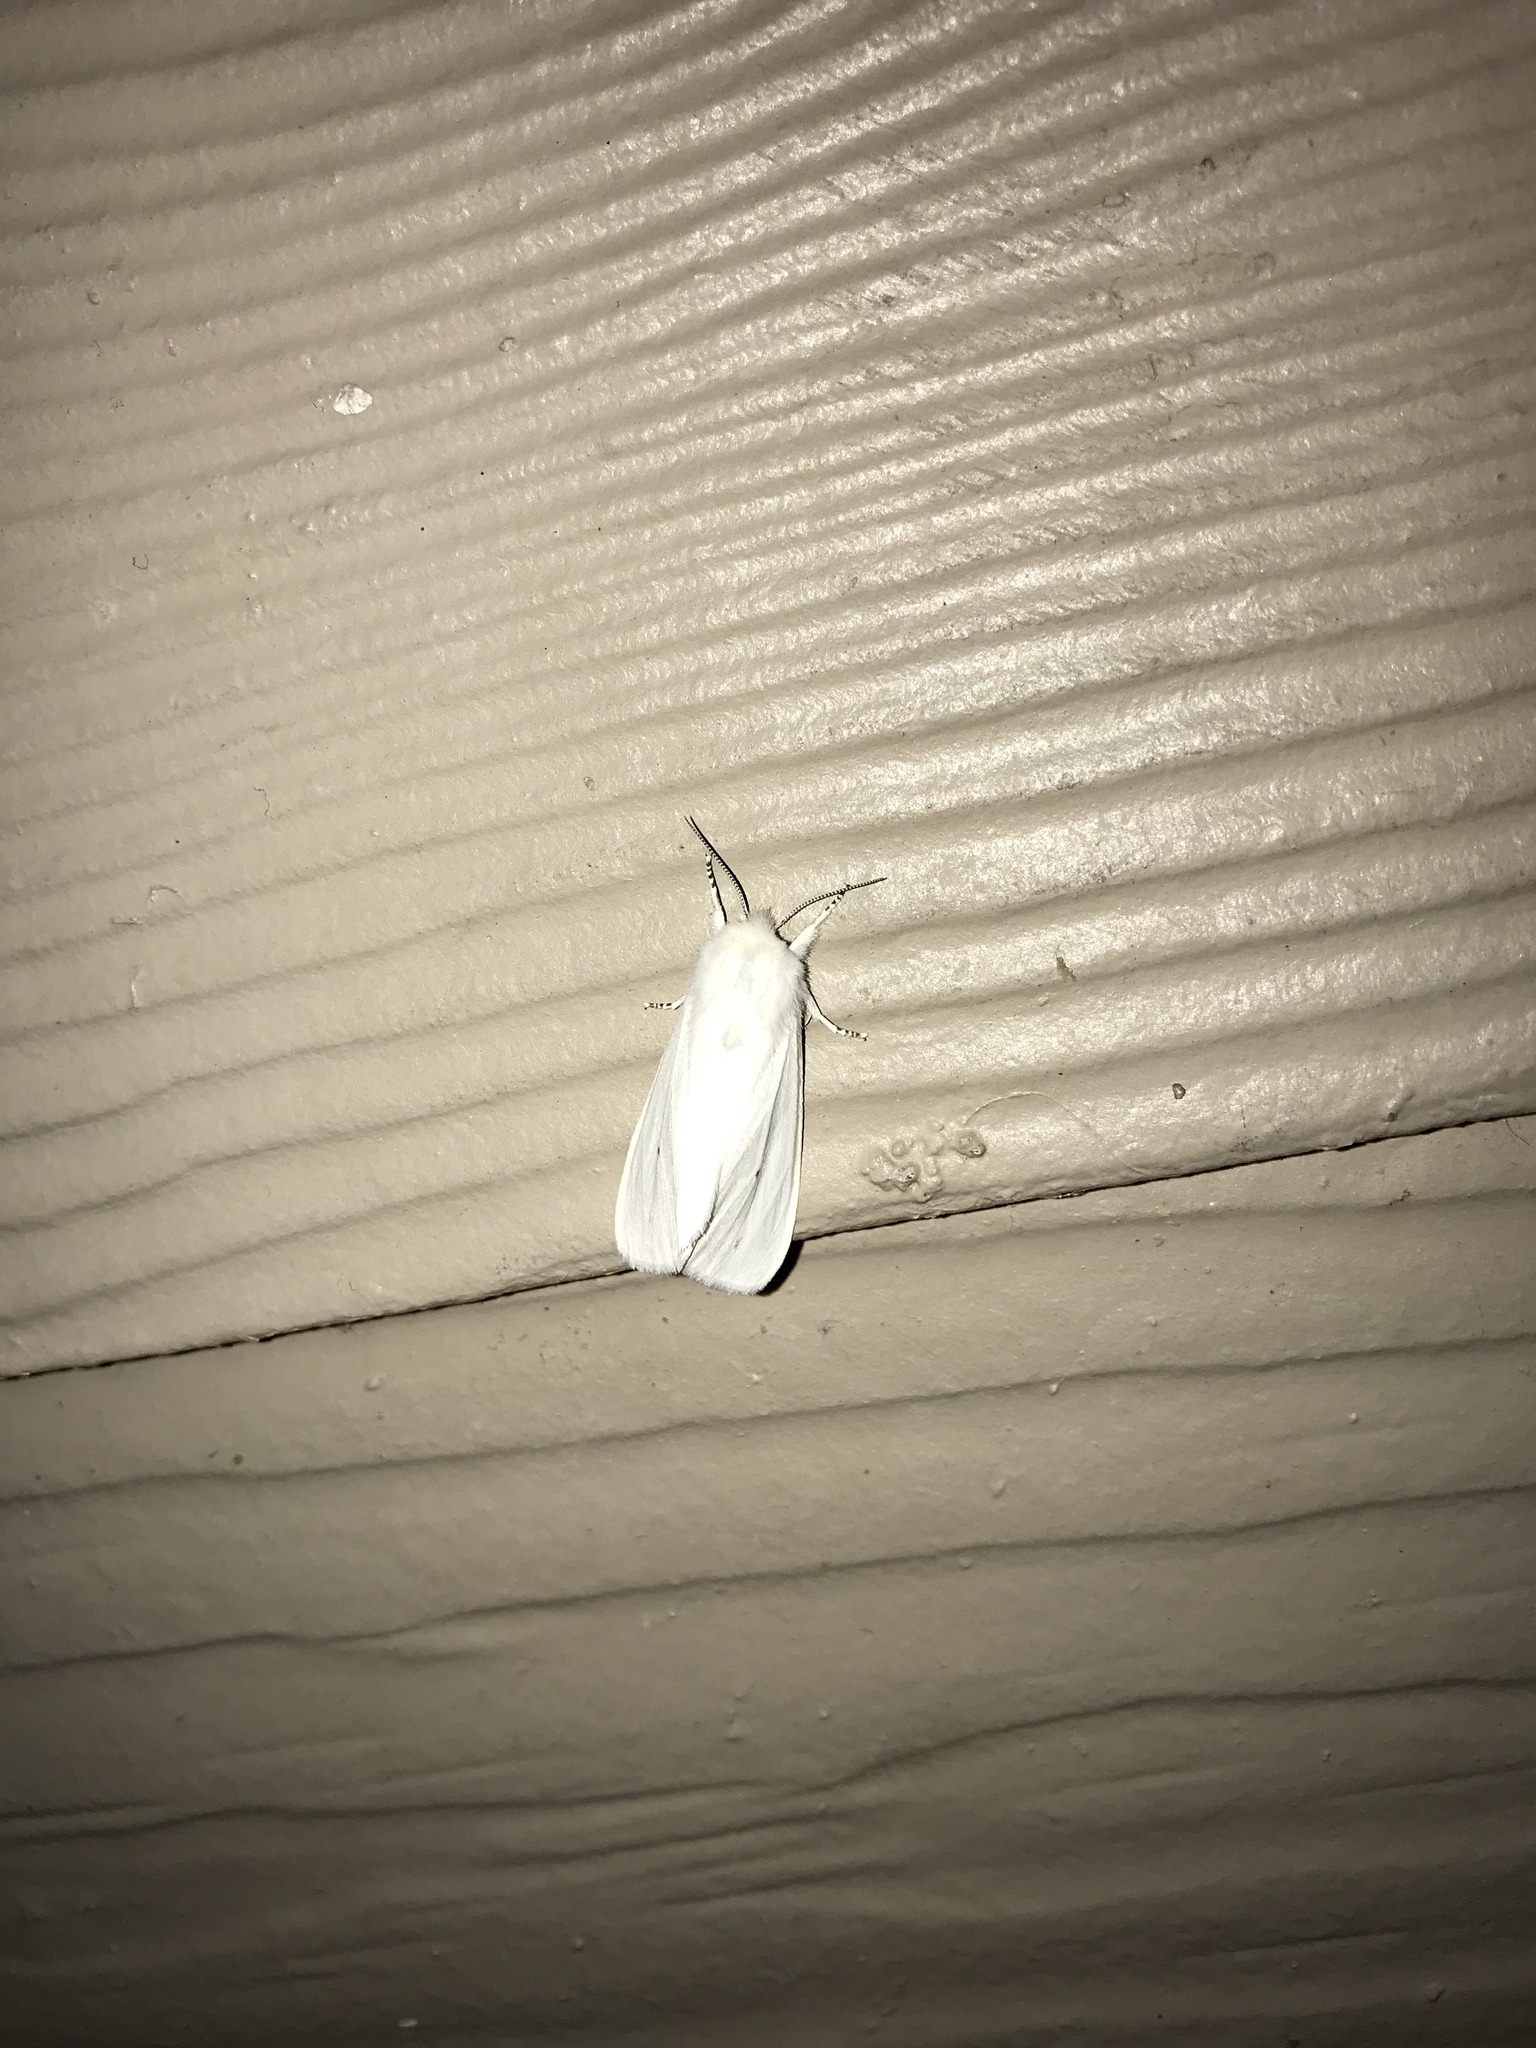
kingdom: Animalia
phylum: Arthropoda
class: Insecta
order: Lepidoptera
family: Erebidae
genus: Spilosoma
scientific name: Spilosoma virginica
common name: Virginia tiger moth
